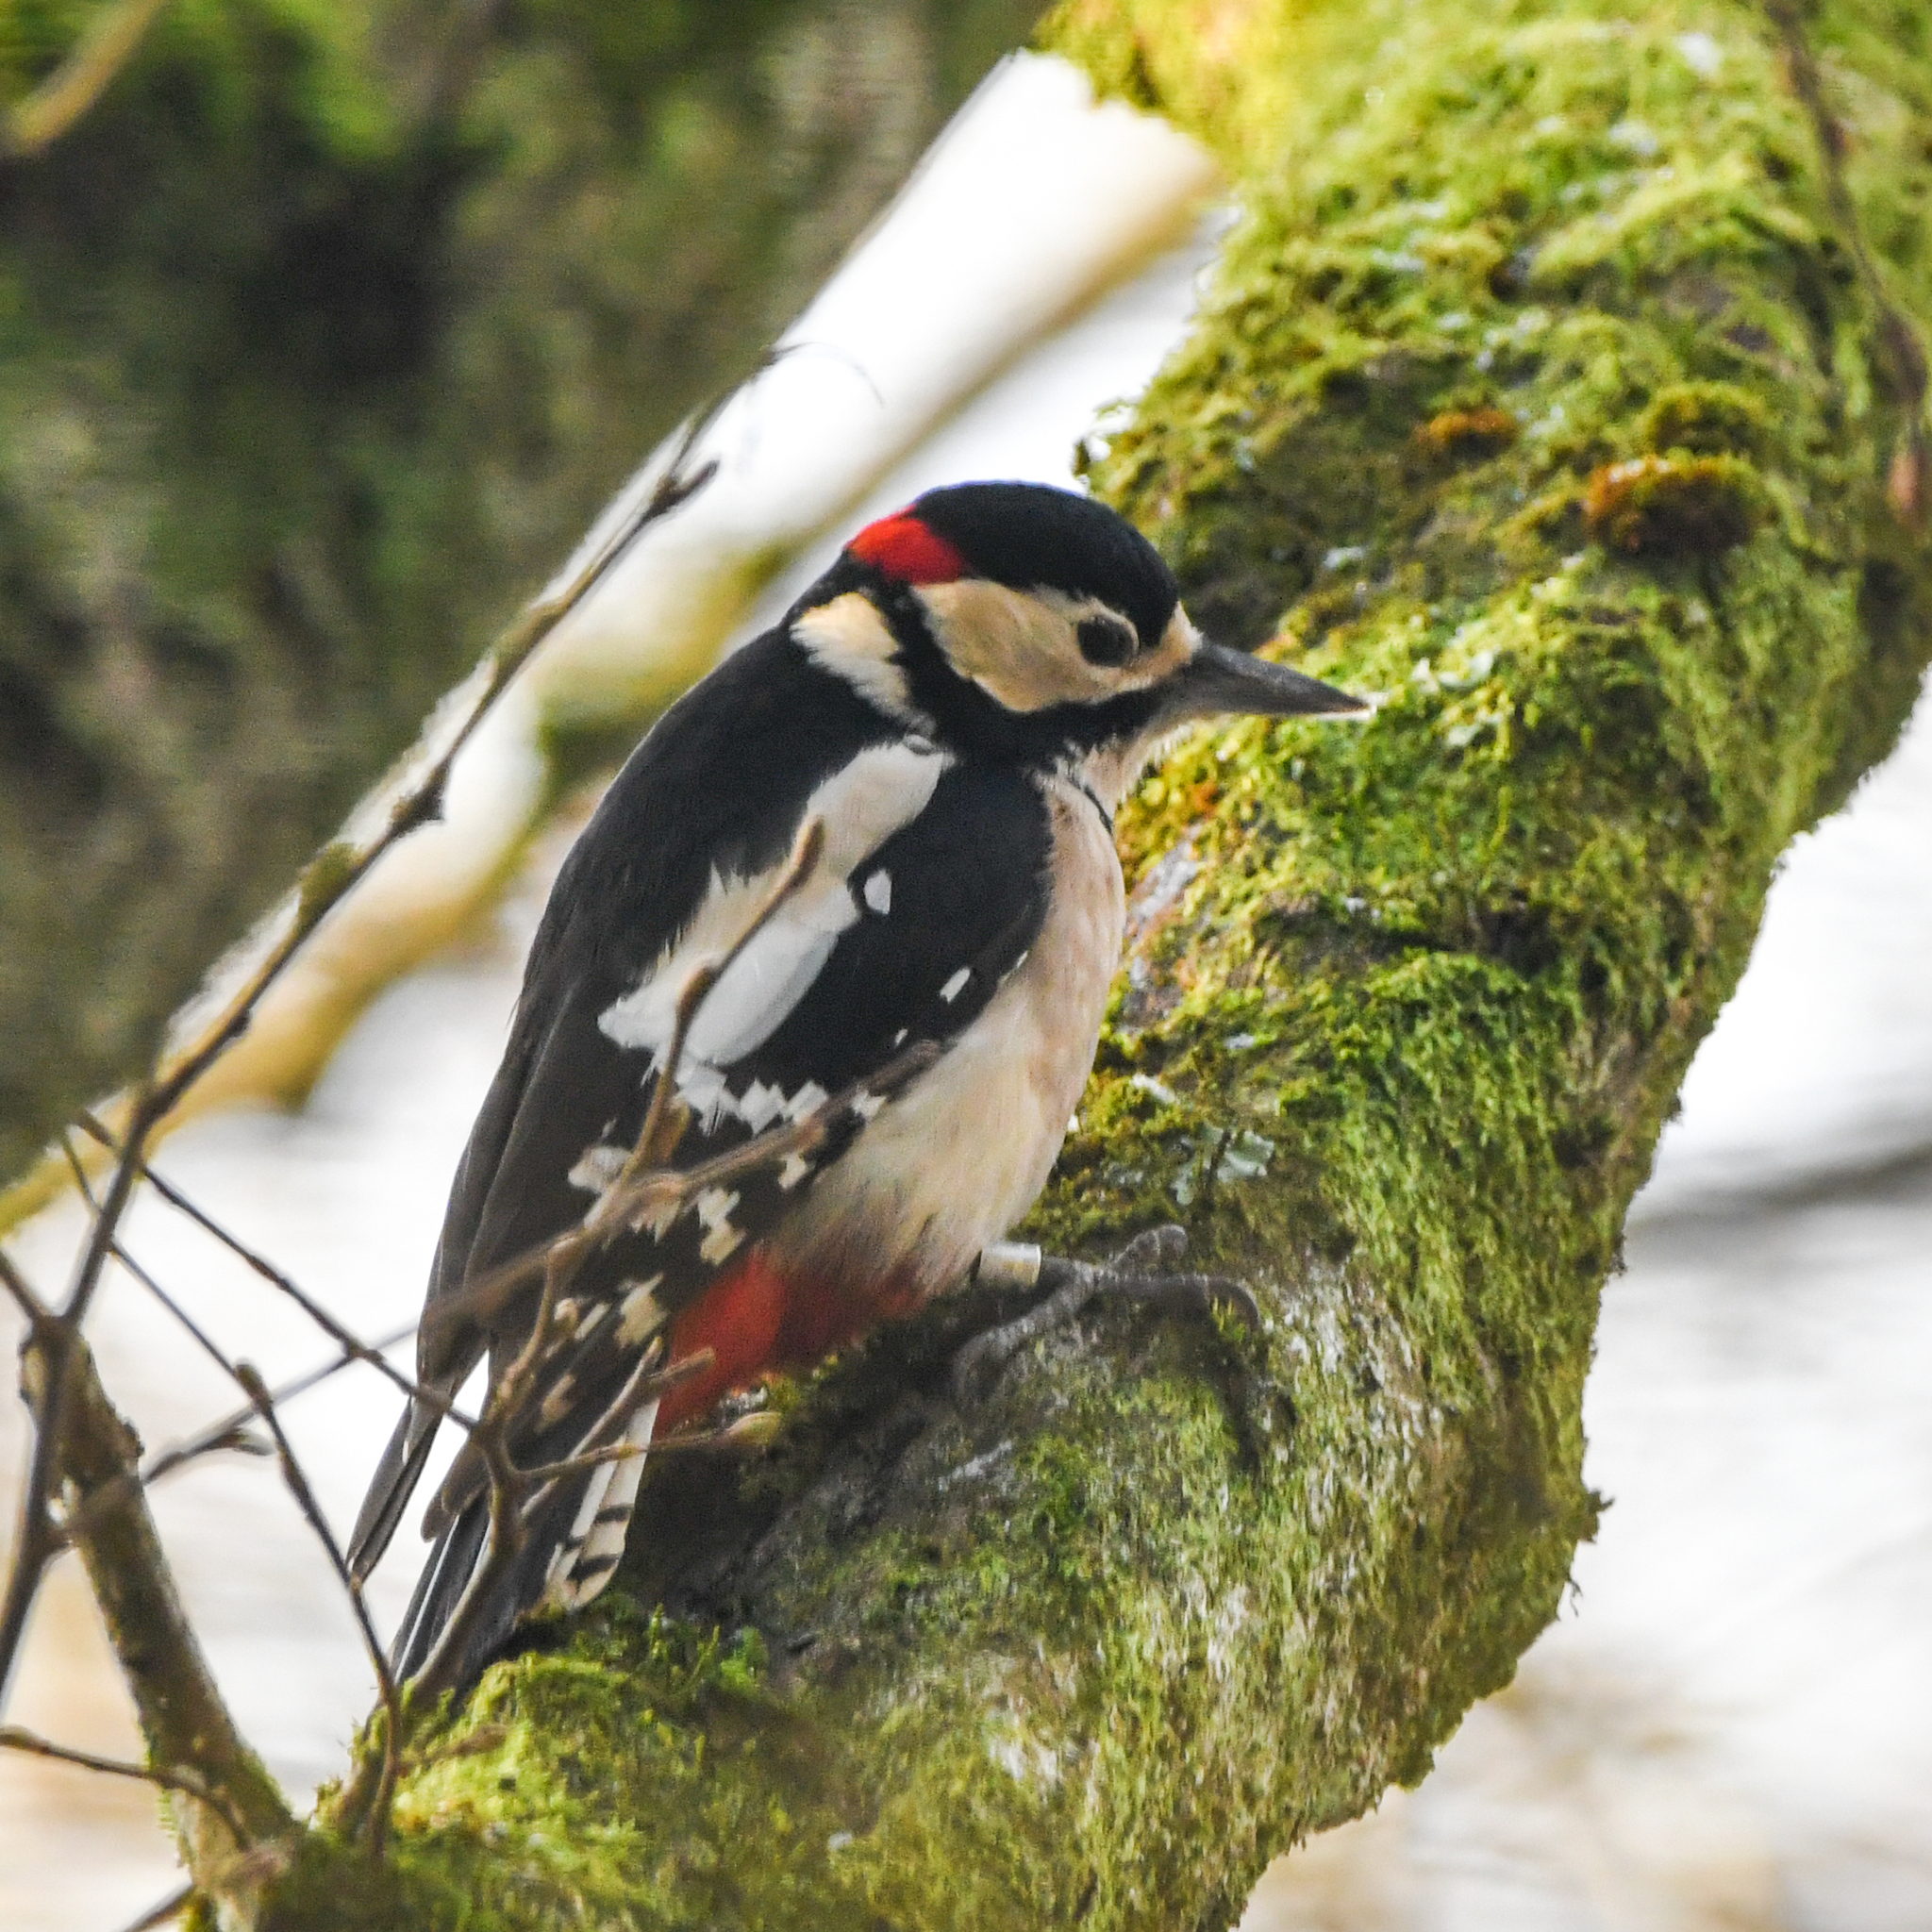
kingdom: Animalia
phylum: Chordata
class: Aves
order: Piciformes
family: Picidae
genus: Dendrocopos
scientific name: Dendrocopos major
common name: Great spotted woodpecker
